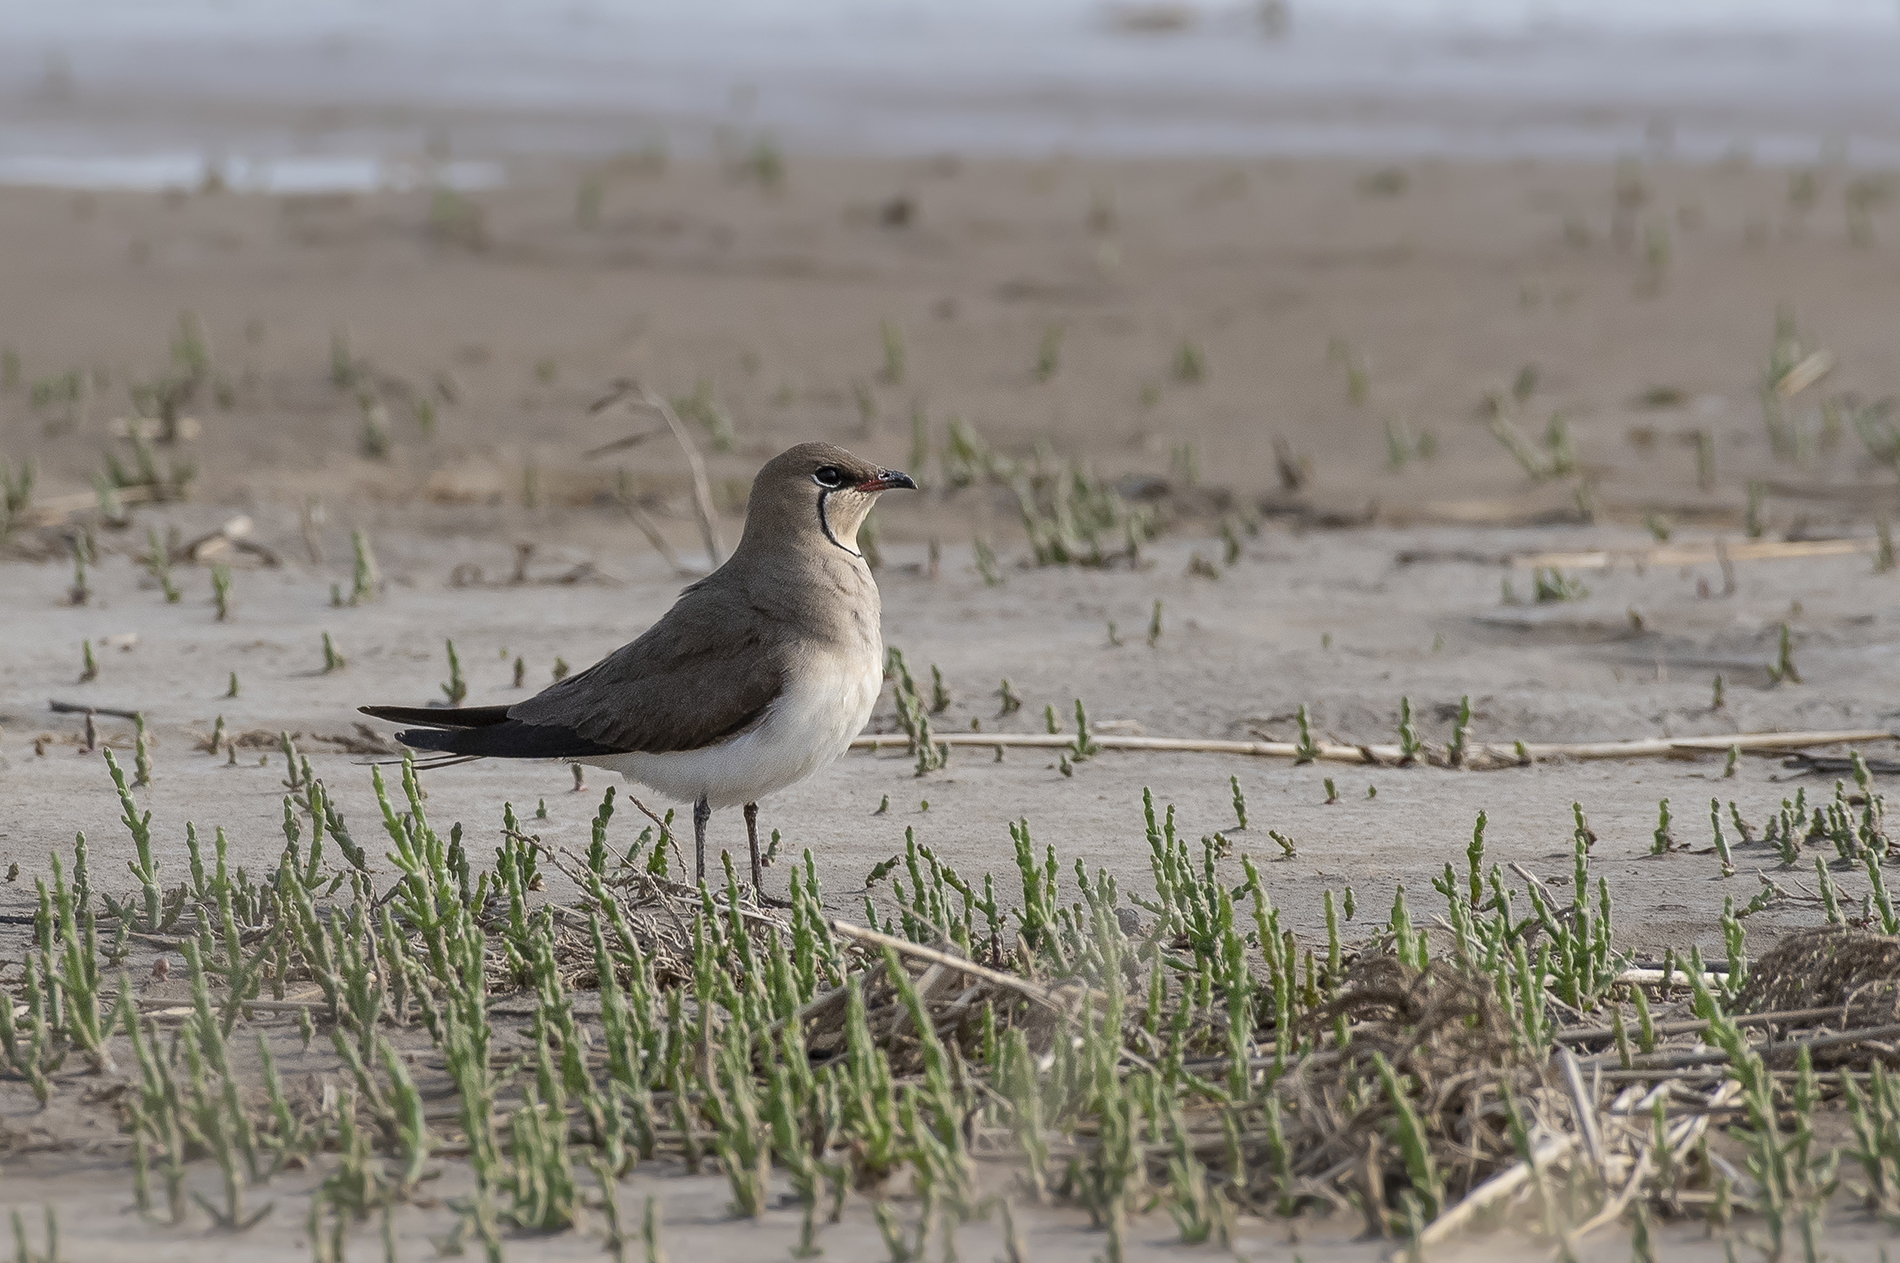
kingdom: Animalia
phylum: Chordata
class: Aves
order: Charadriiformes
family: Glareolidae
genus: Glareola
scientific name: Glareola nordmanni
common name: Black-winged pratincole
